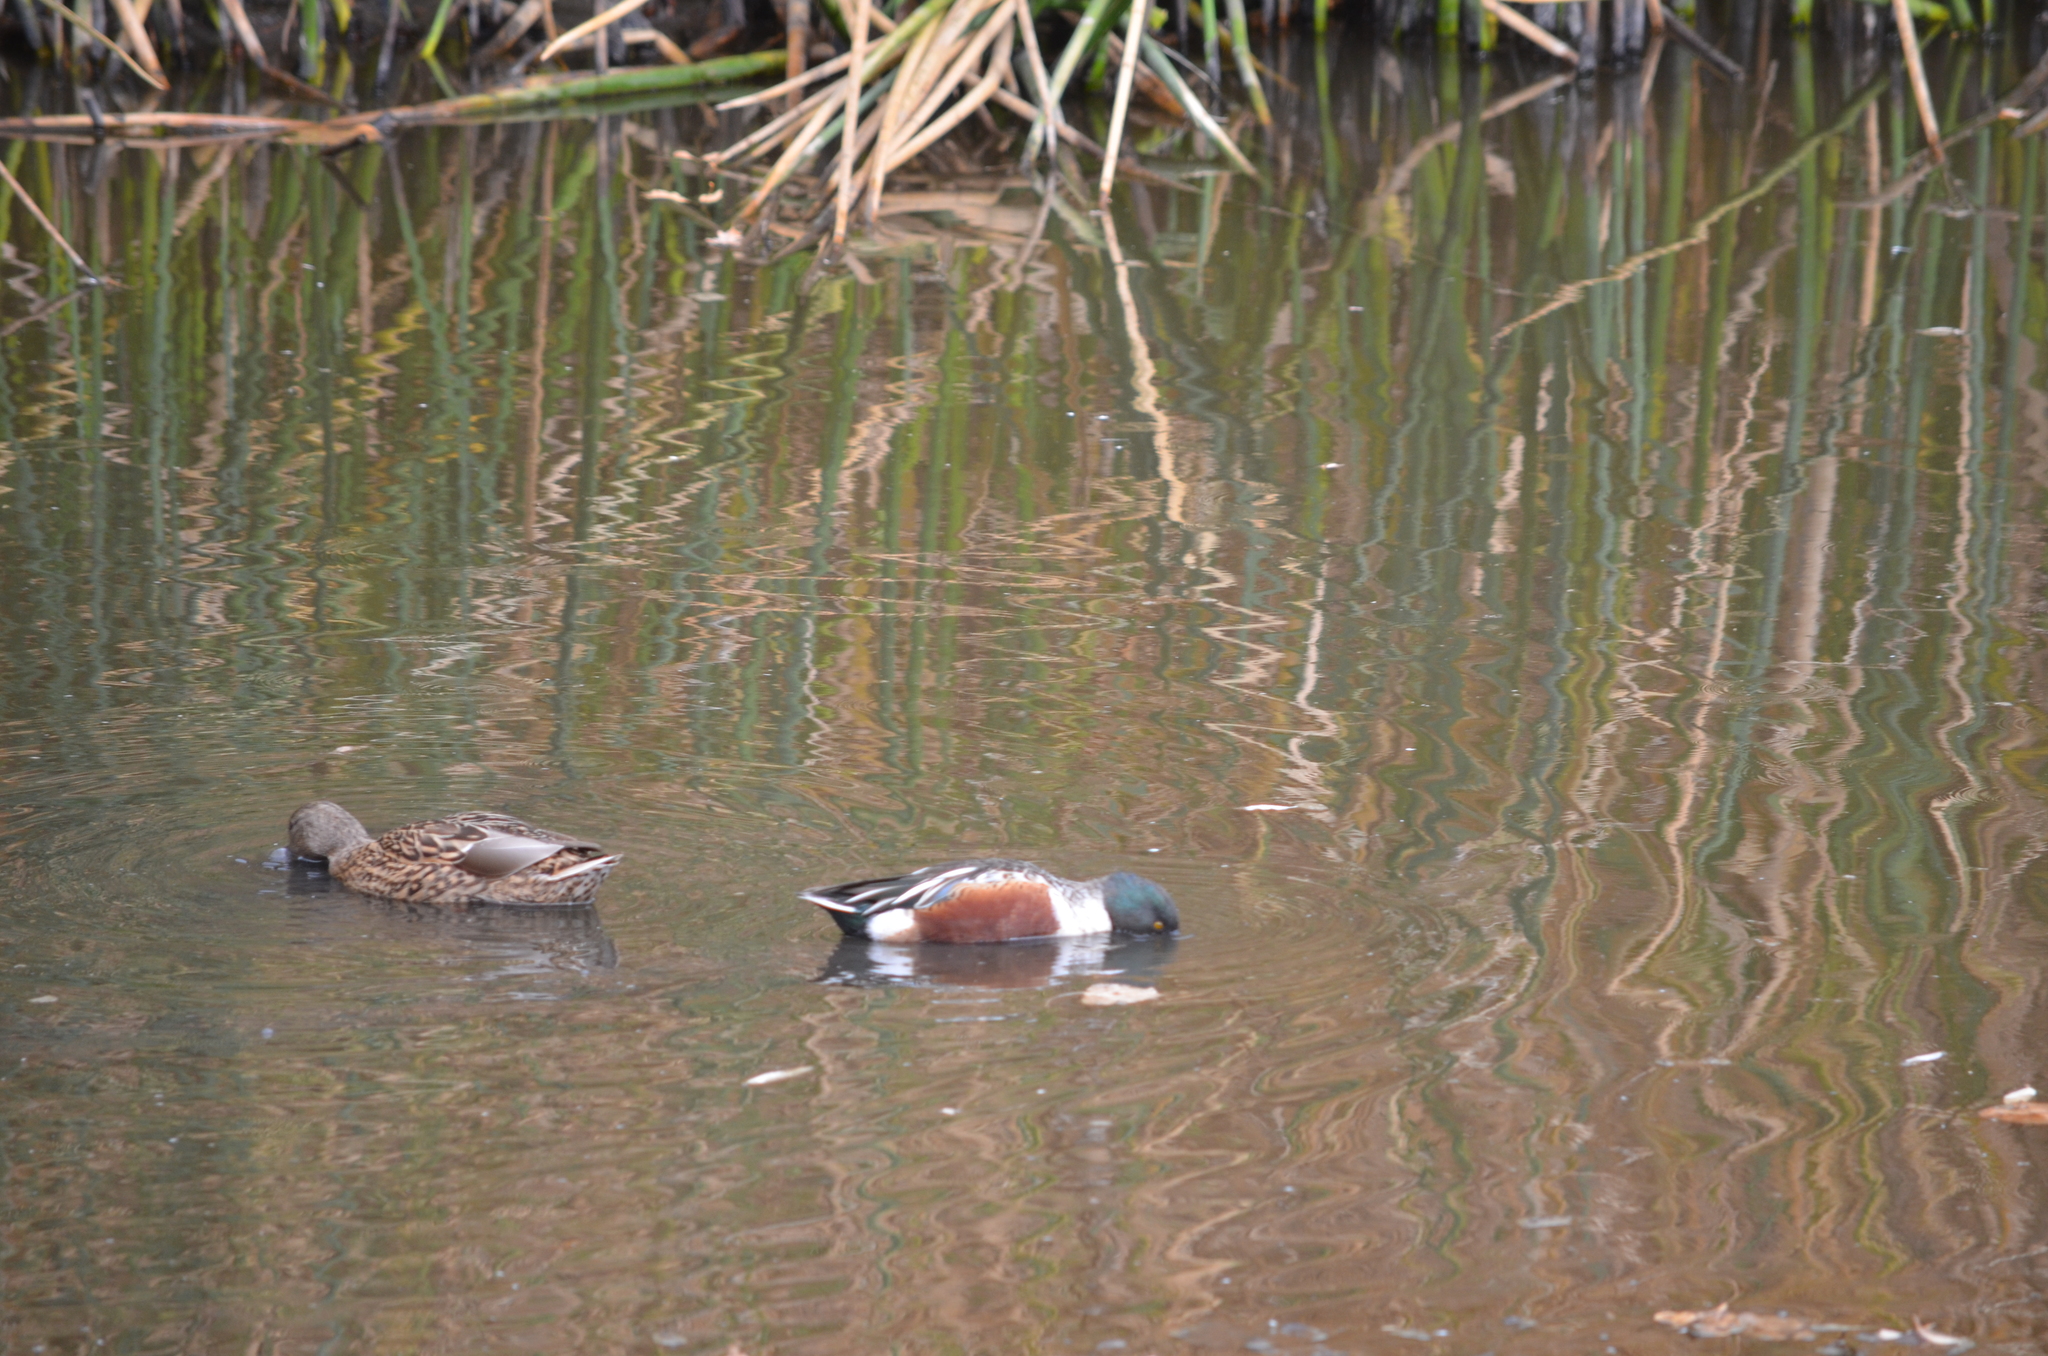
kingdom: Animalia
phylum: Chordata
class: Aves
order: Anseriformes
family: Anatidae
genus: Spatula
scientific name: Spatula clypeata
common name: Northern shoveler
